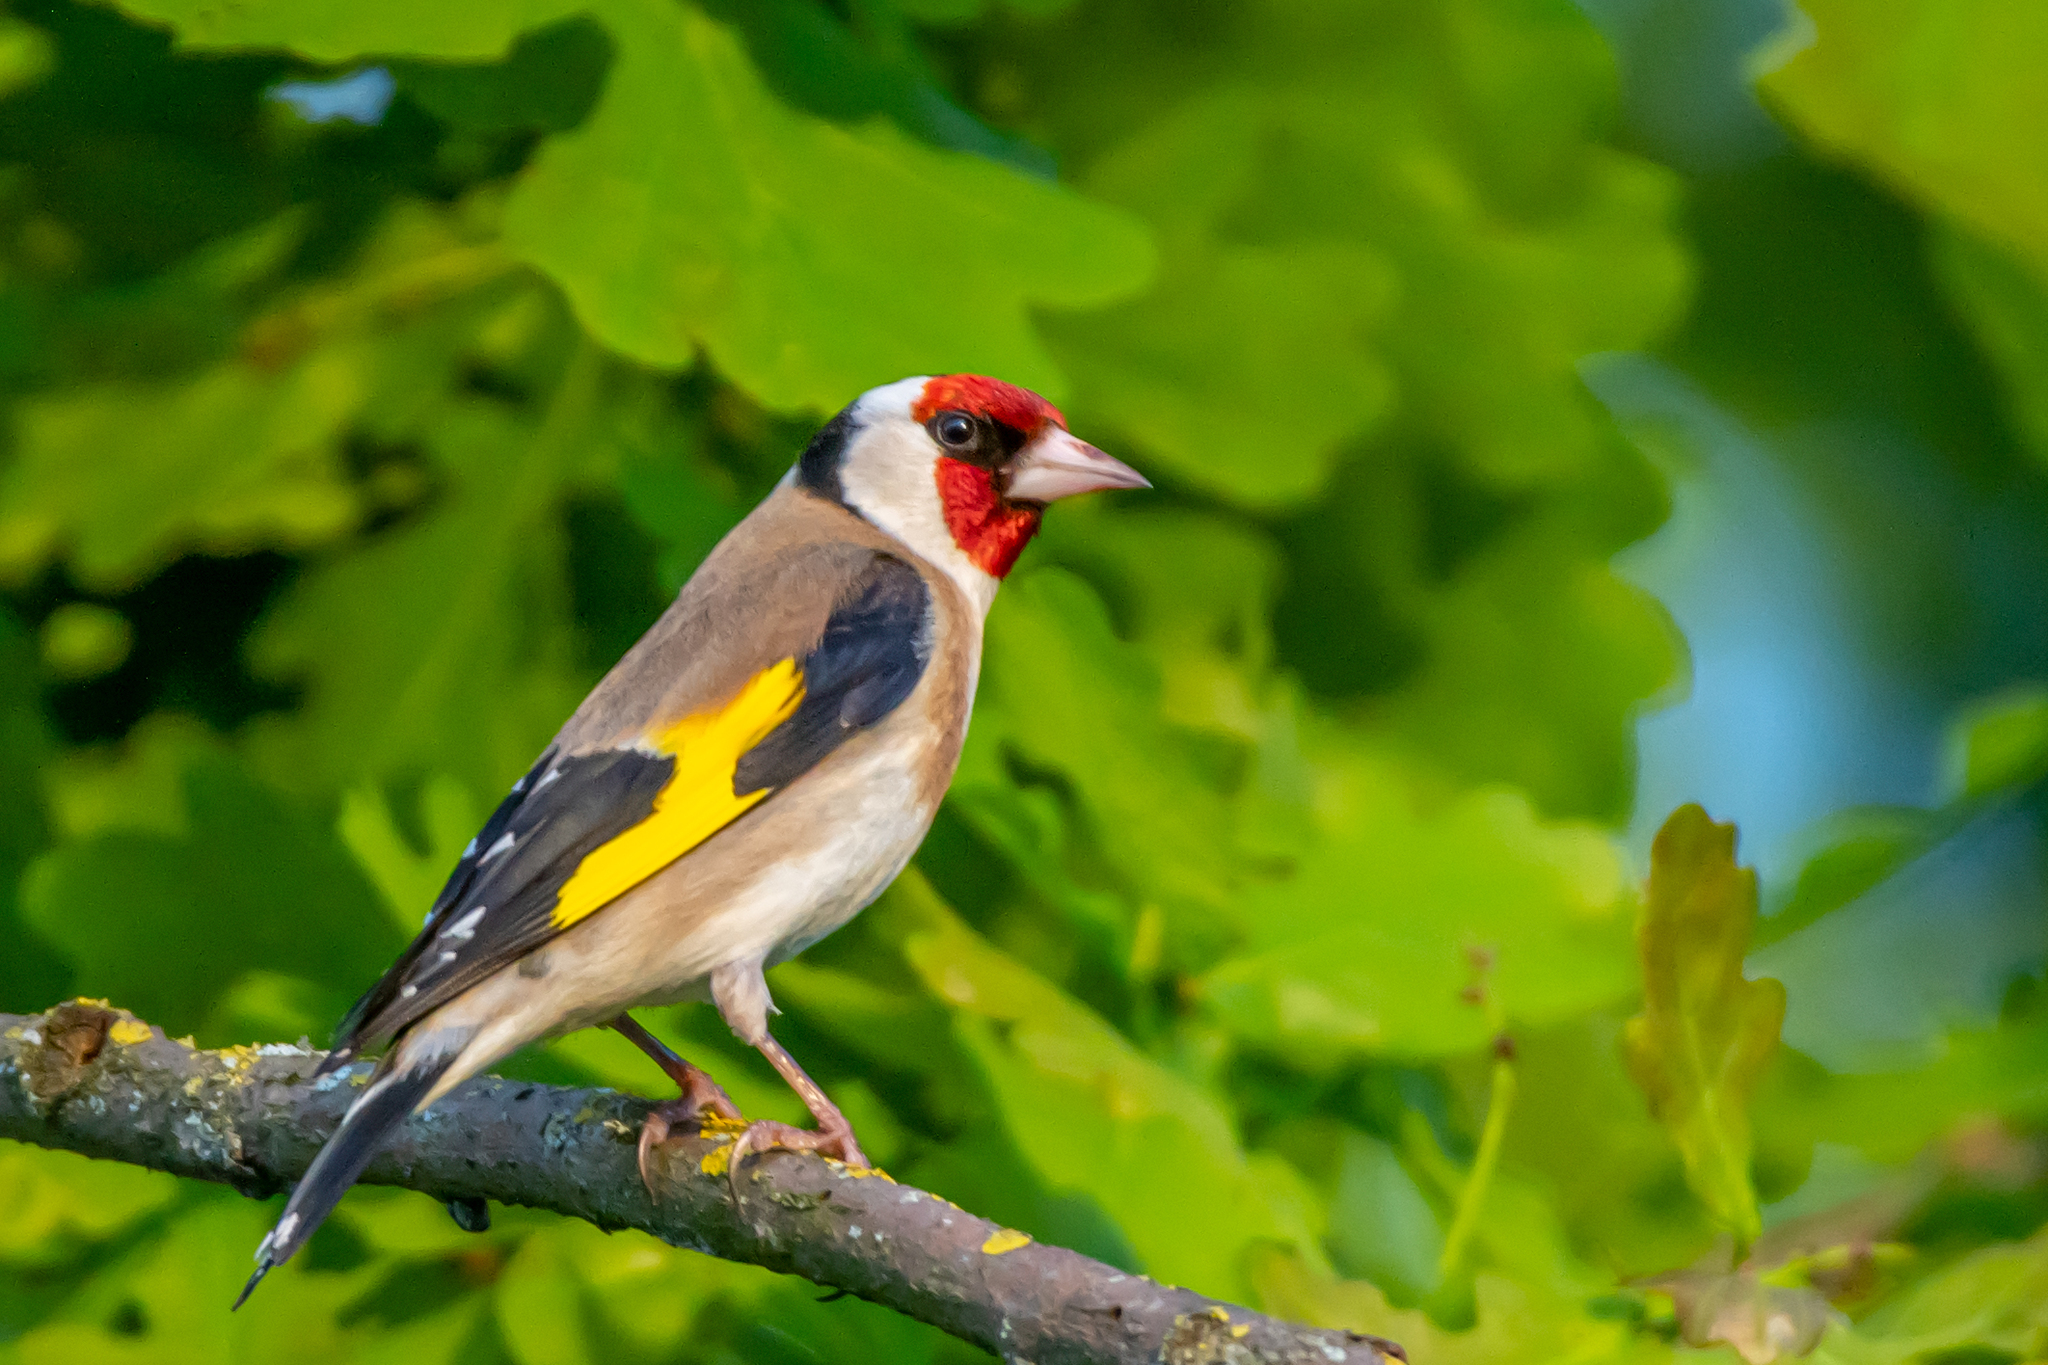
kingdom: Animalia
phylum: Chordata
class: Aves
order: Passeriformes
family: Fringillidae
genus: Carduelis
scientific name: Carduelis carduelis
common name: European goldfinch
